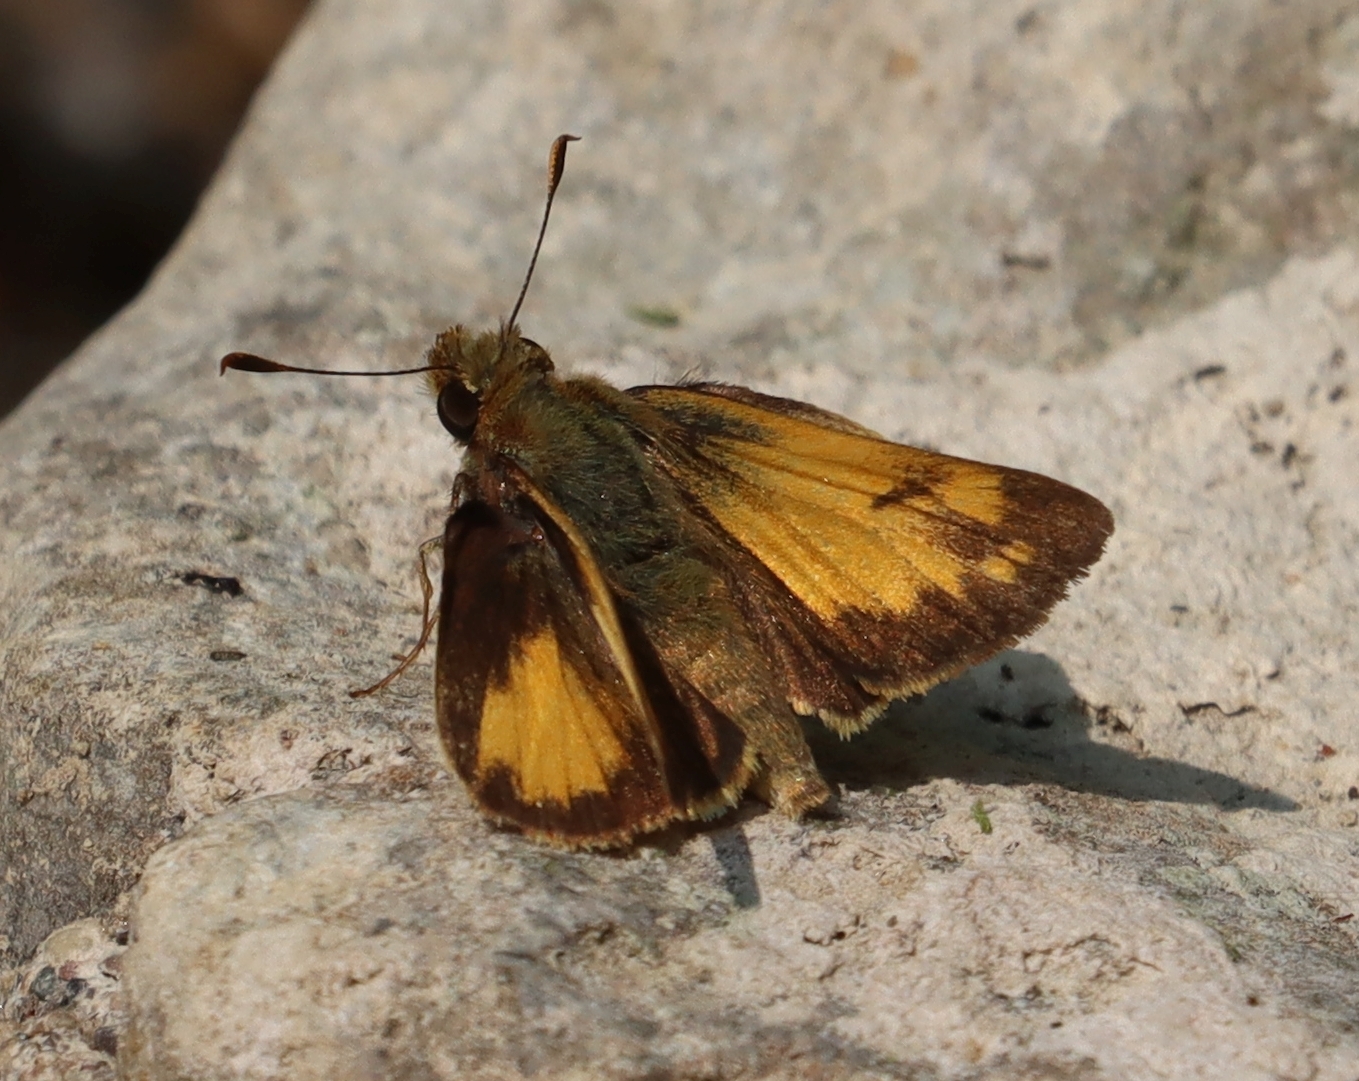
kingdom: Animalia
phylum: Arthropoda
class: Insecta
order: Lepidoptera
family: Hesperiidae
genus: Lon
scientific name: Lon zabulon
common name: Zabulon skipper
